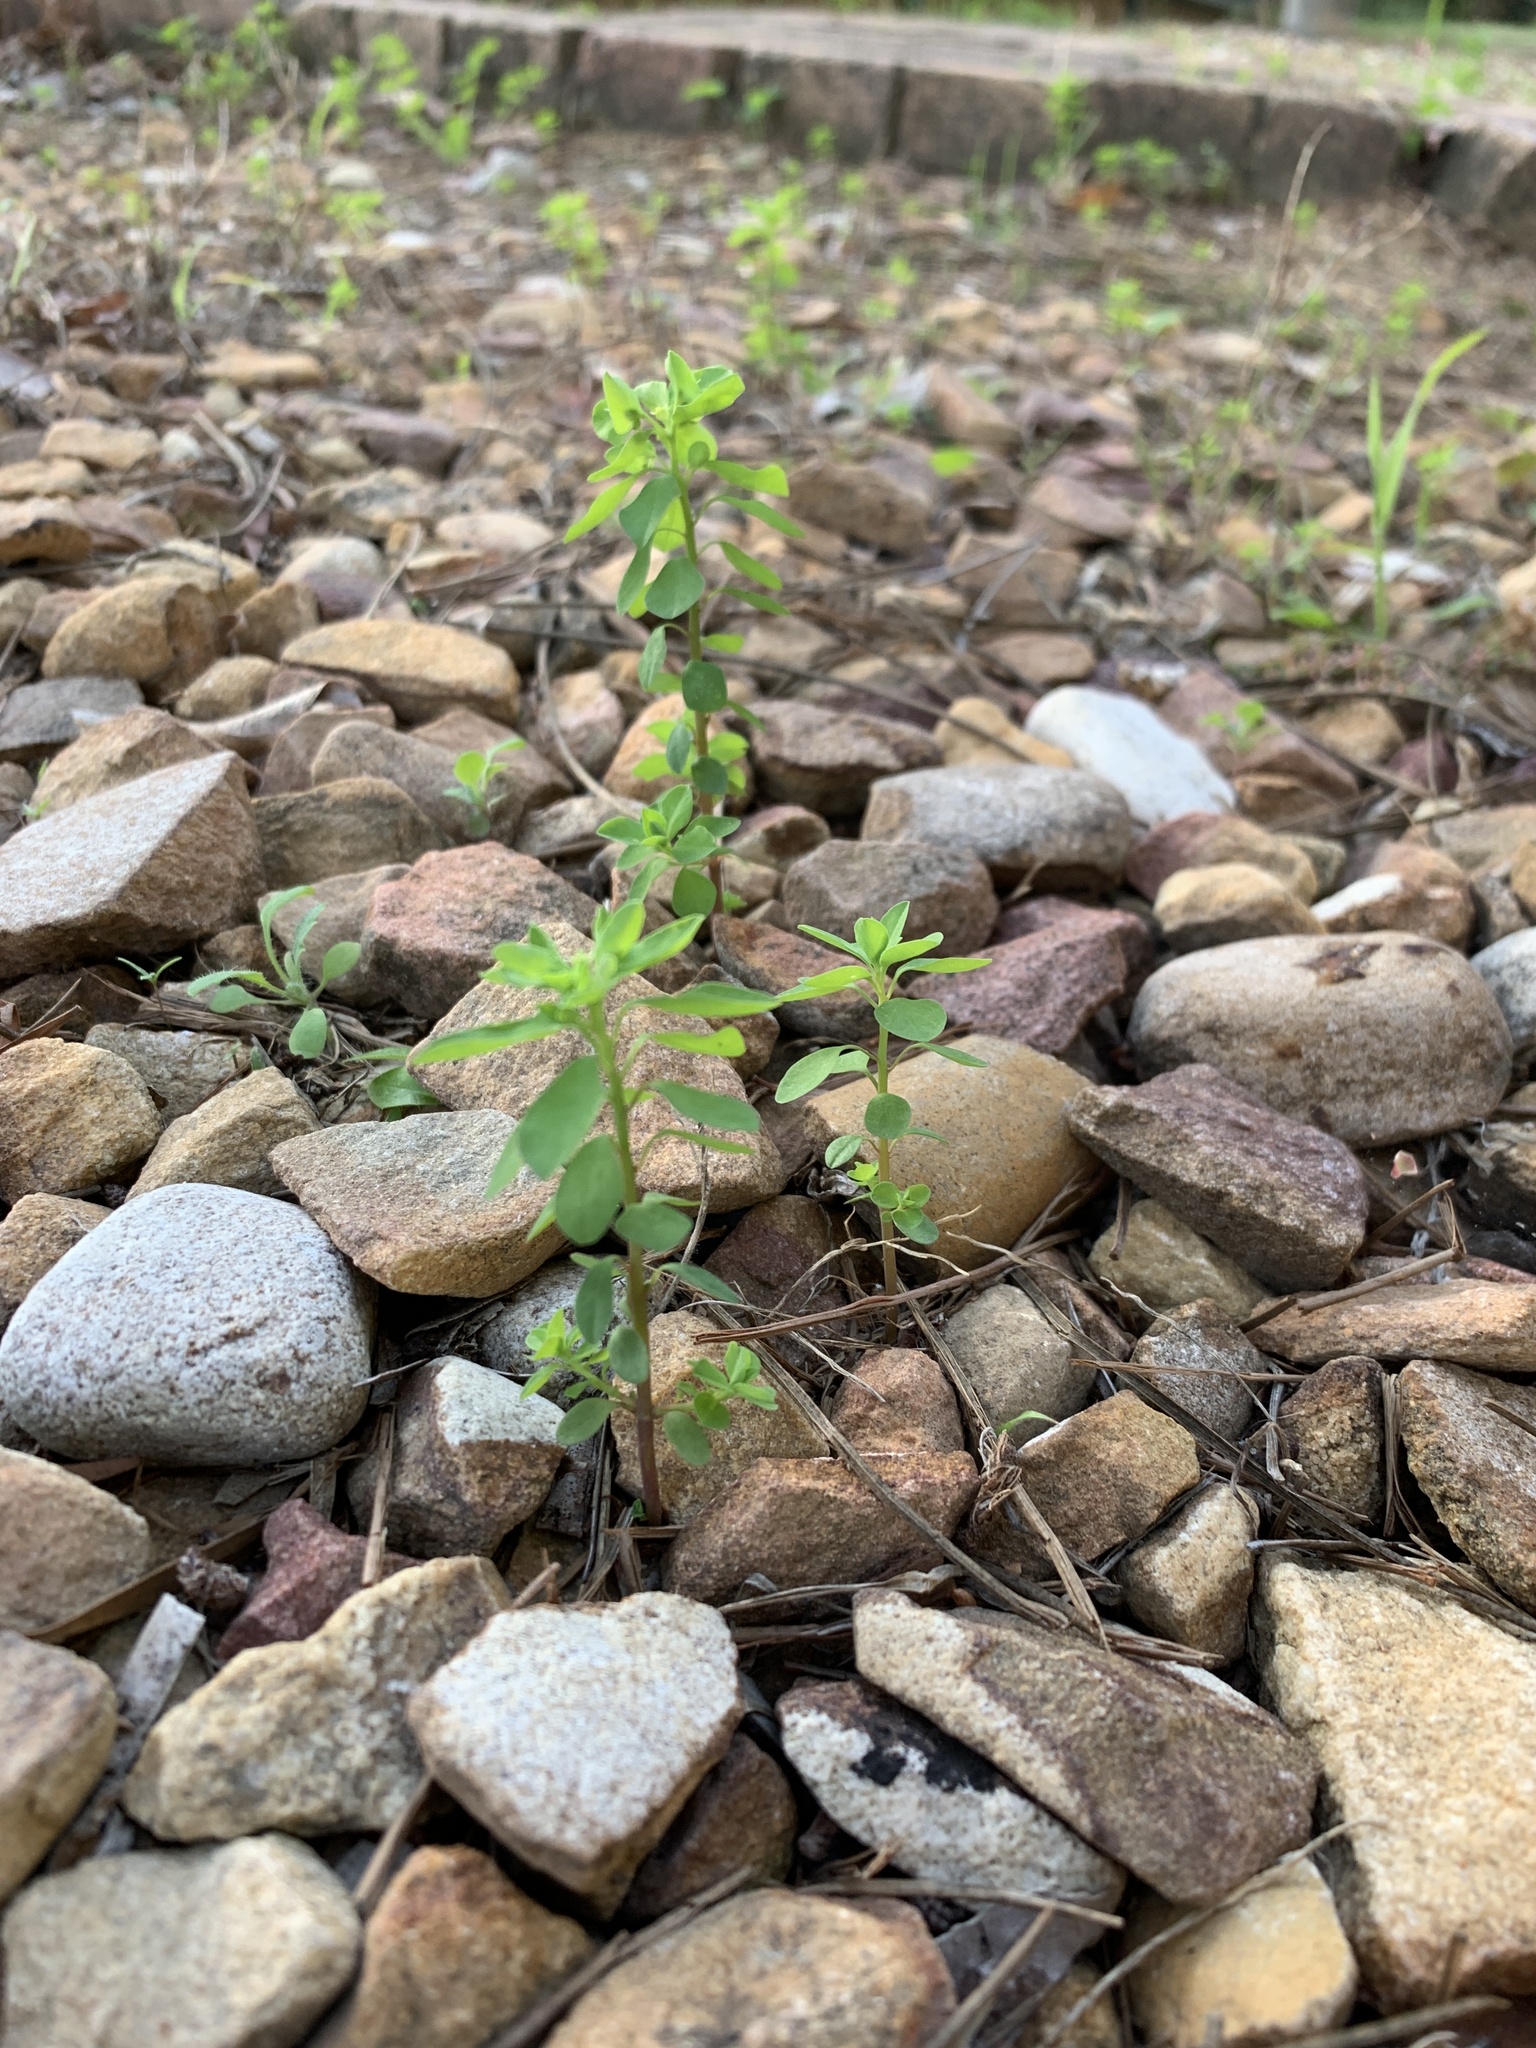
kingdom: Plantae
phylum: Tracheophyta
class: Magnoliopsida
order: Malpighiales
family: Euphorbiaceae
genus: Euphorbia
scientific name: Euphorbia peplus
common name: Petty spurge
